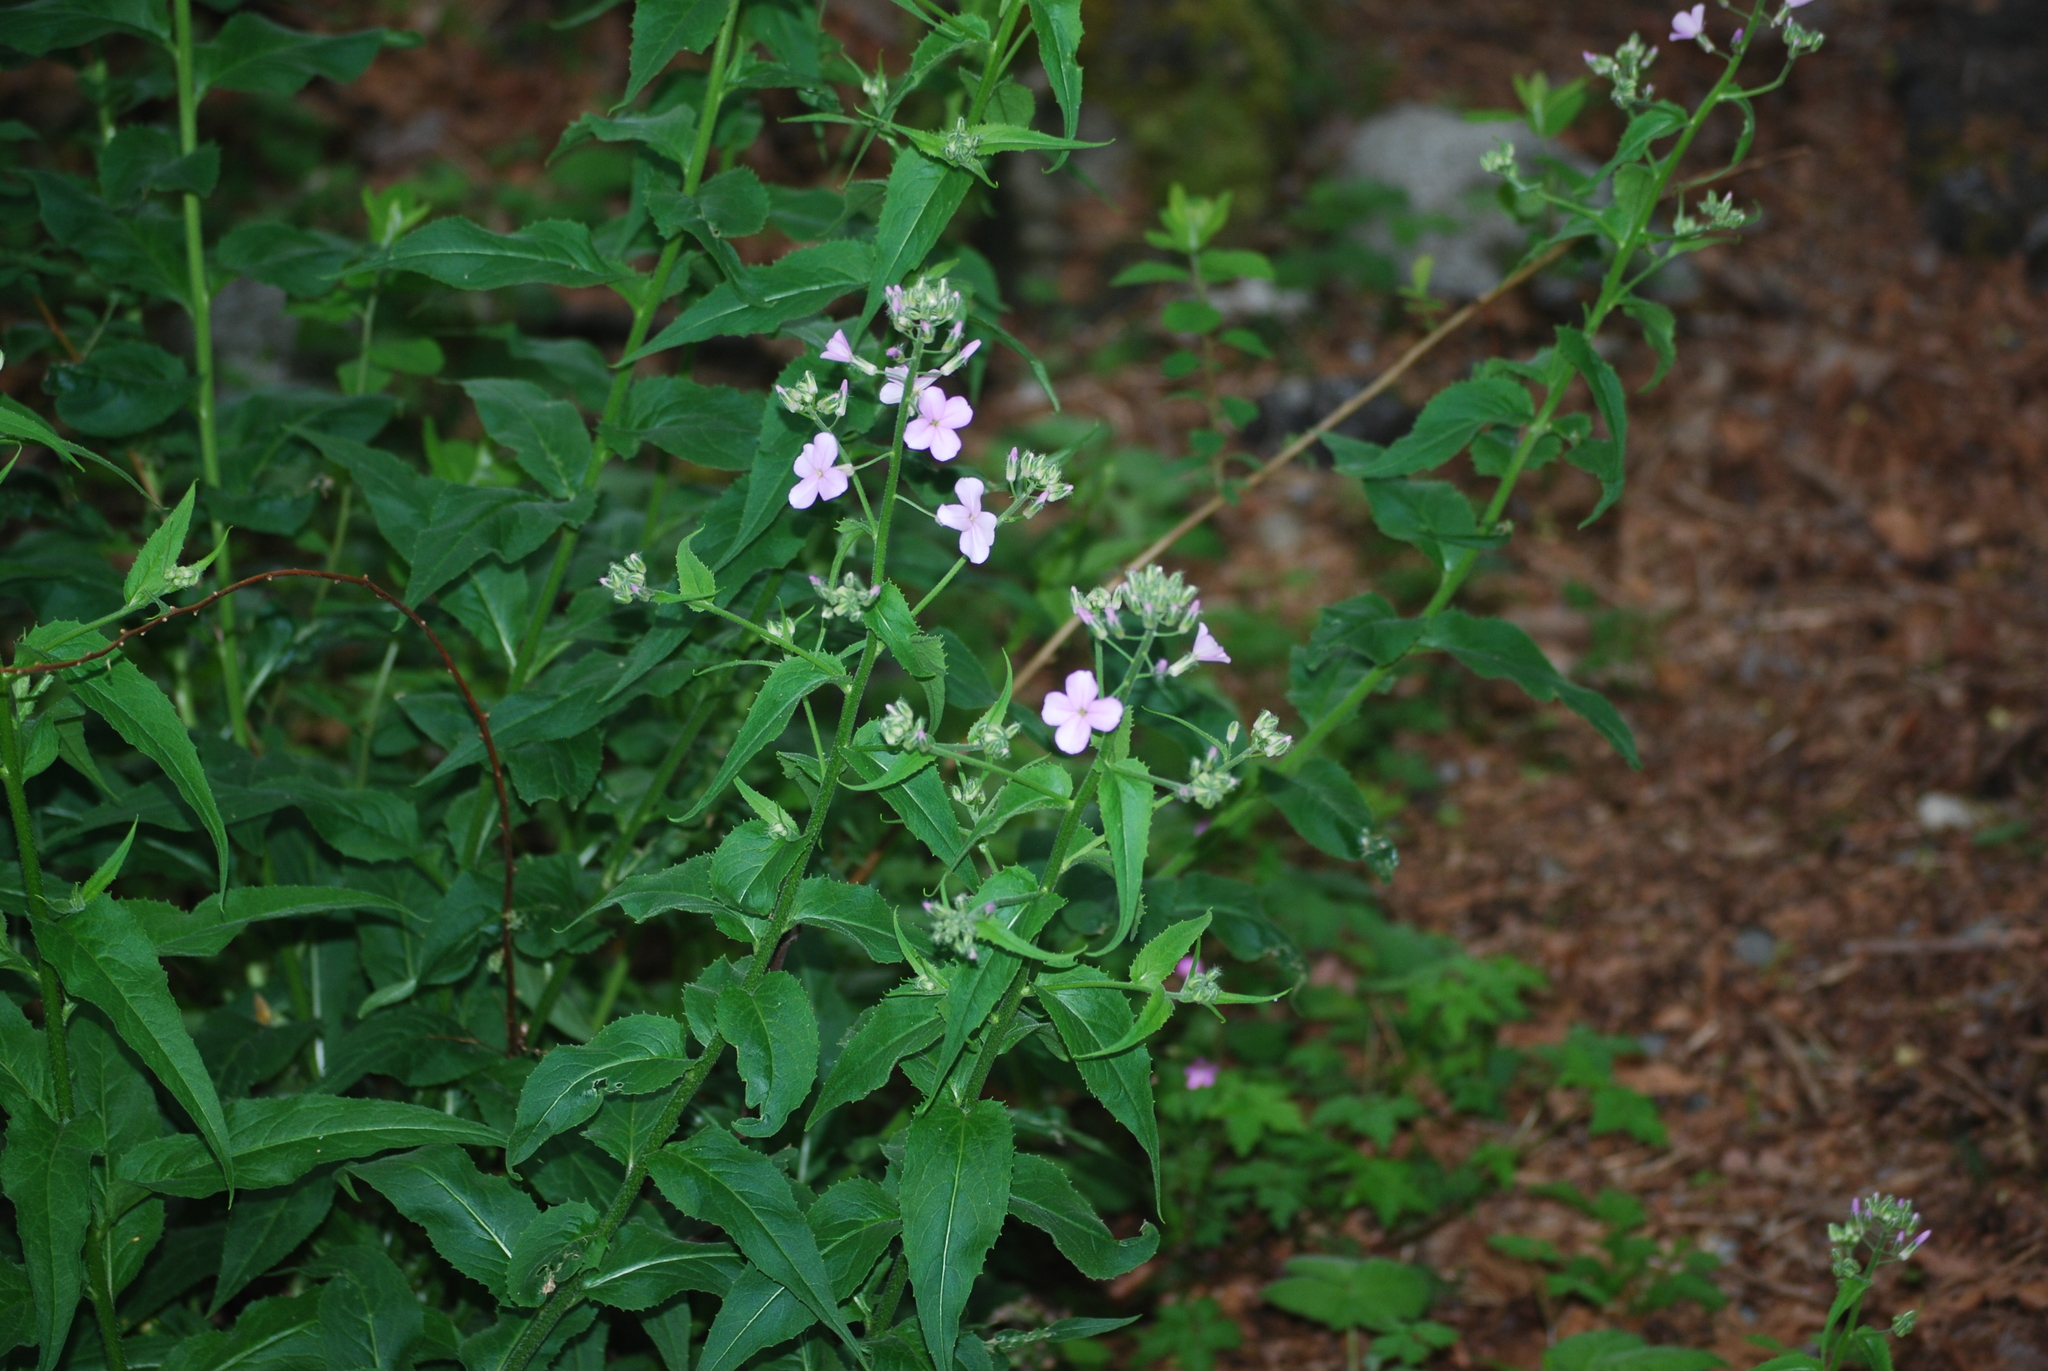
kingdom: Plantae
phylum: Tracheophyta
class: Magnoliopsida
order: Brassicales
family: Brassicaceae
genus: Hesperis
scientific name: Hesperis matronalis
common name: Dame's-violet
